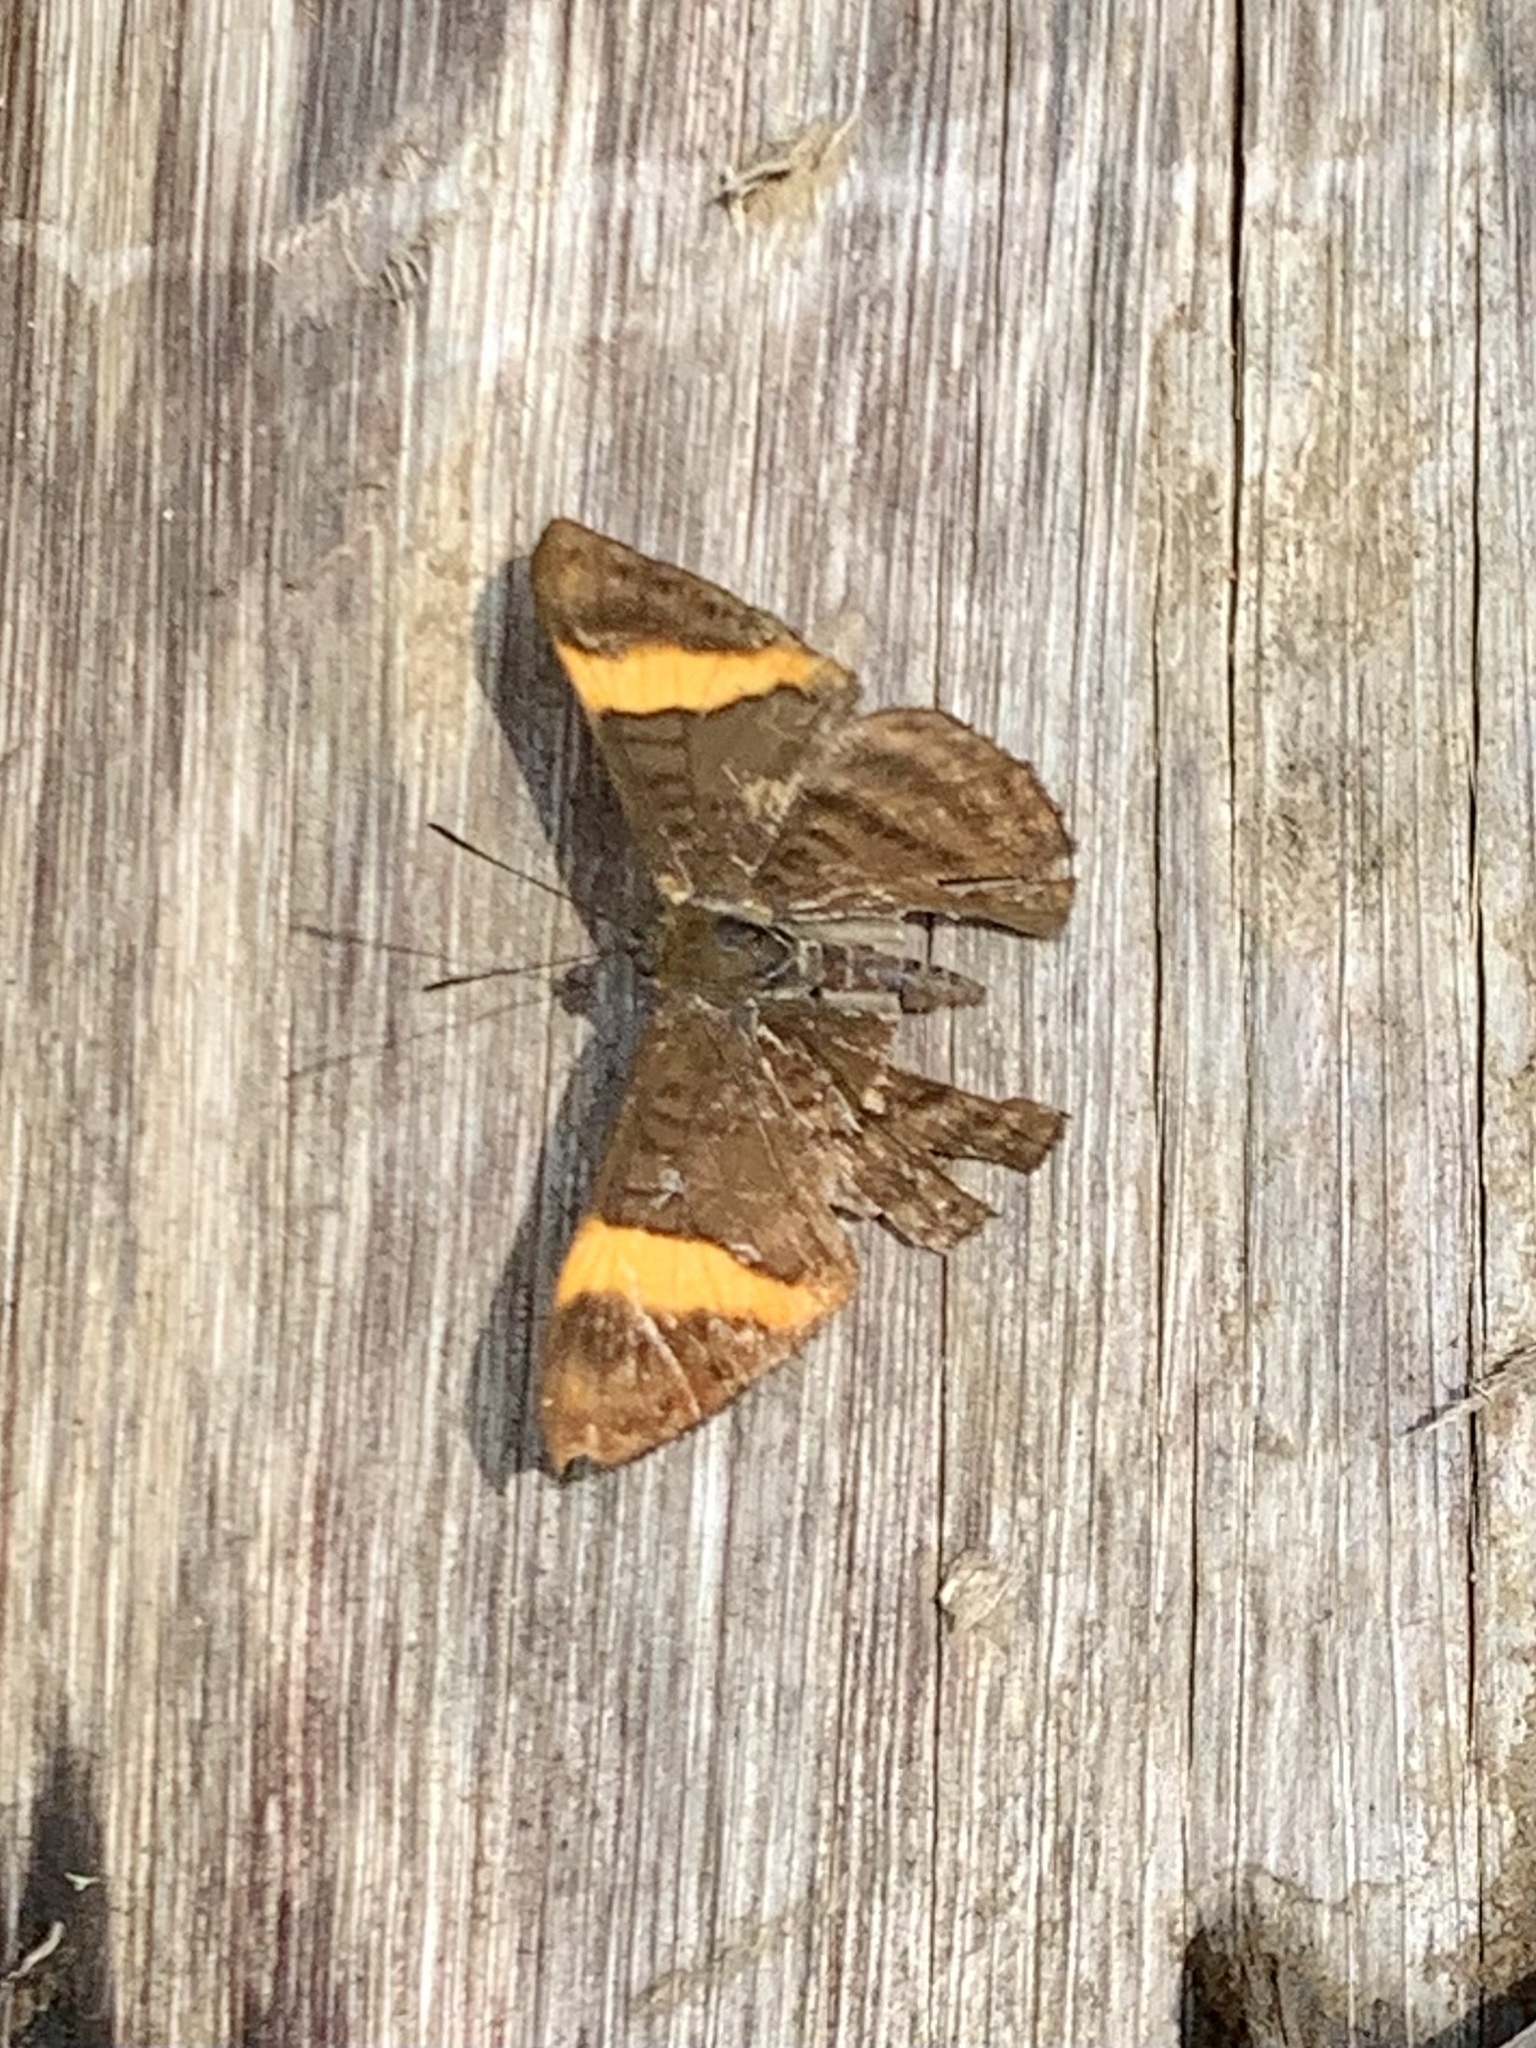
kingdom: Animalia
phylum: Arthropoda
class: Insecta
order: Lepidoptera
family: Lycaenidae
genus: Emesis
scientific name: Emesis cypria
